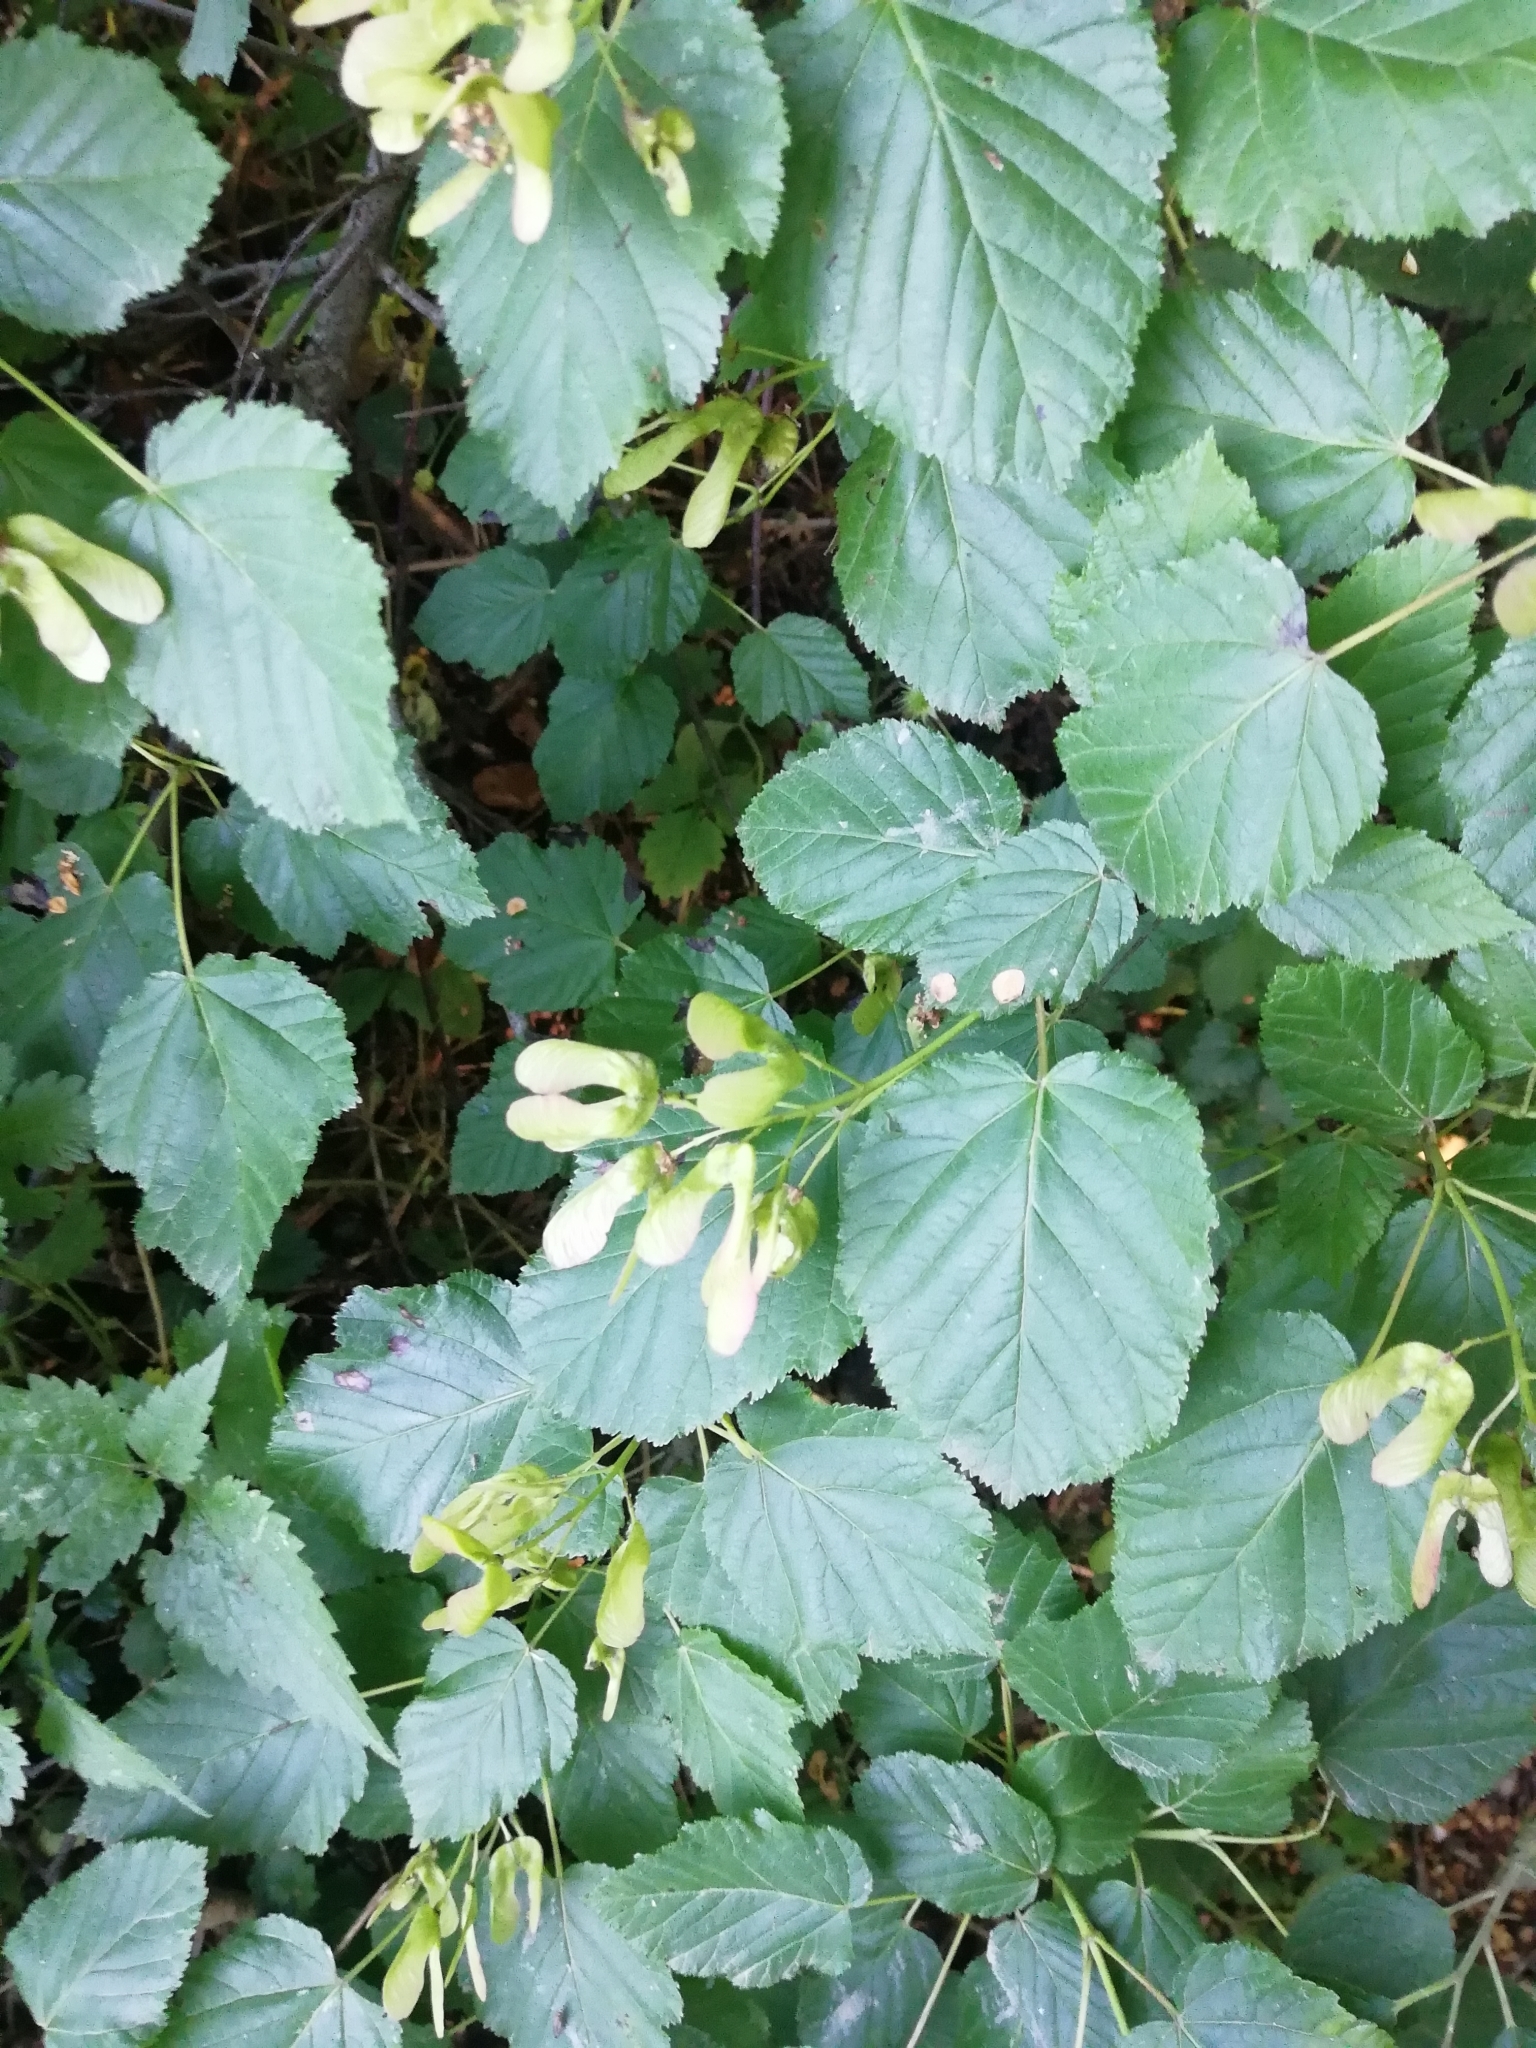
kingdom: Plantae
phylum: Tracheophyta
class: Magnoliopsida
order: Sapindales
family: Sapindaceae
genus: Acer
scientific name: Acer tataricum
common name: Tartar maple
